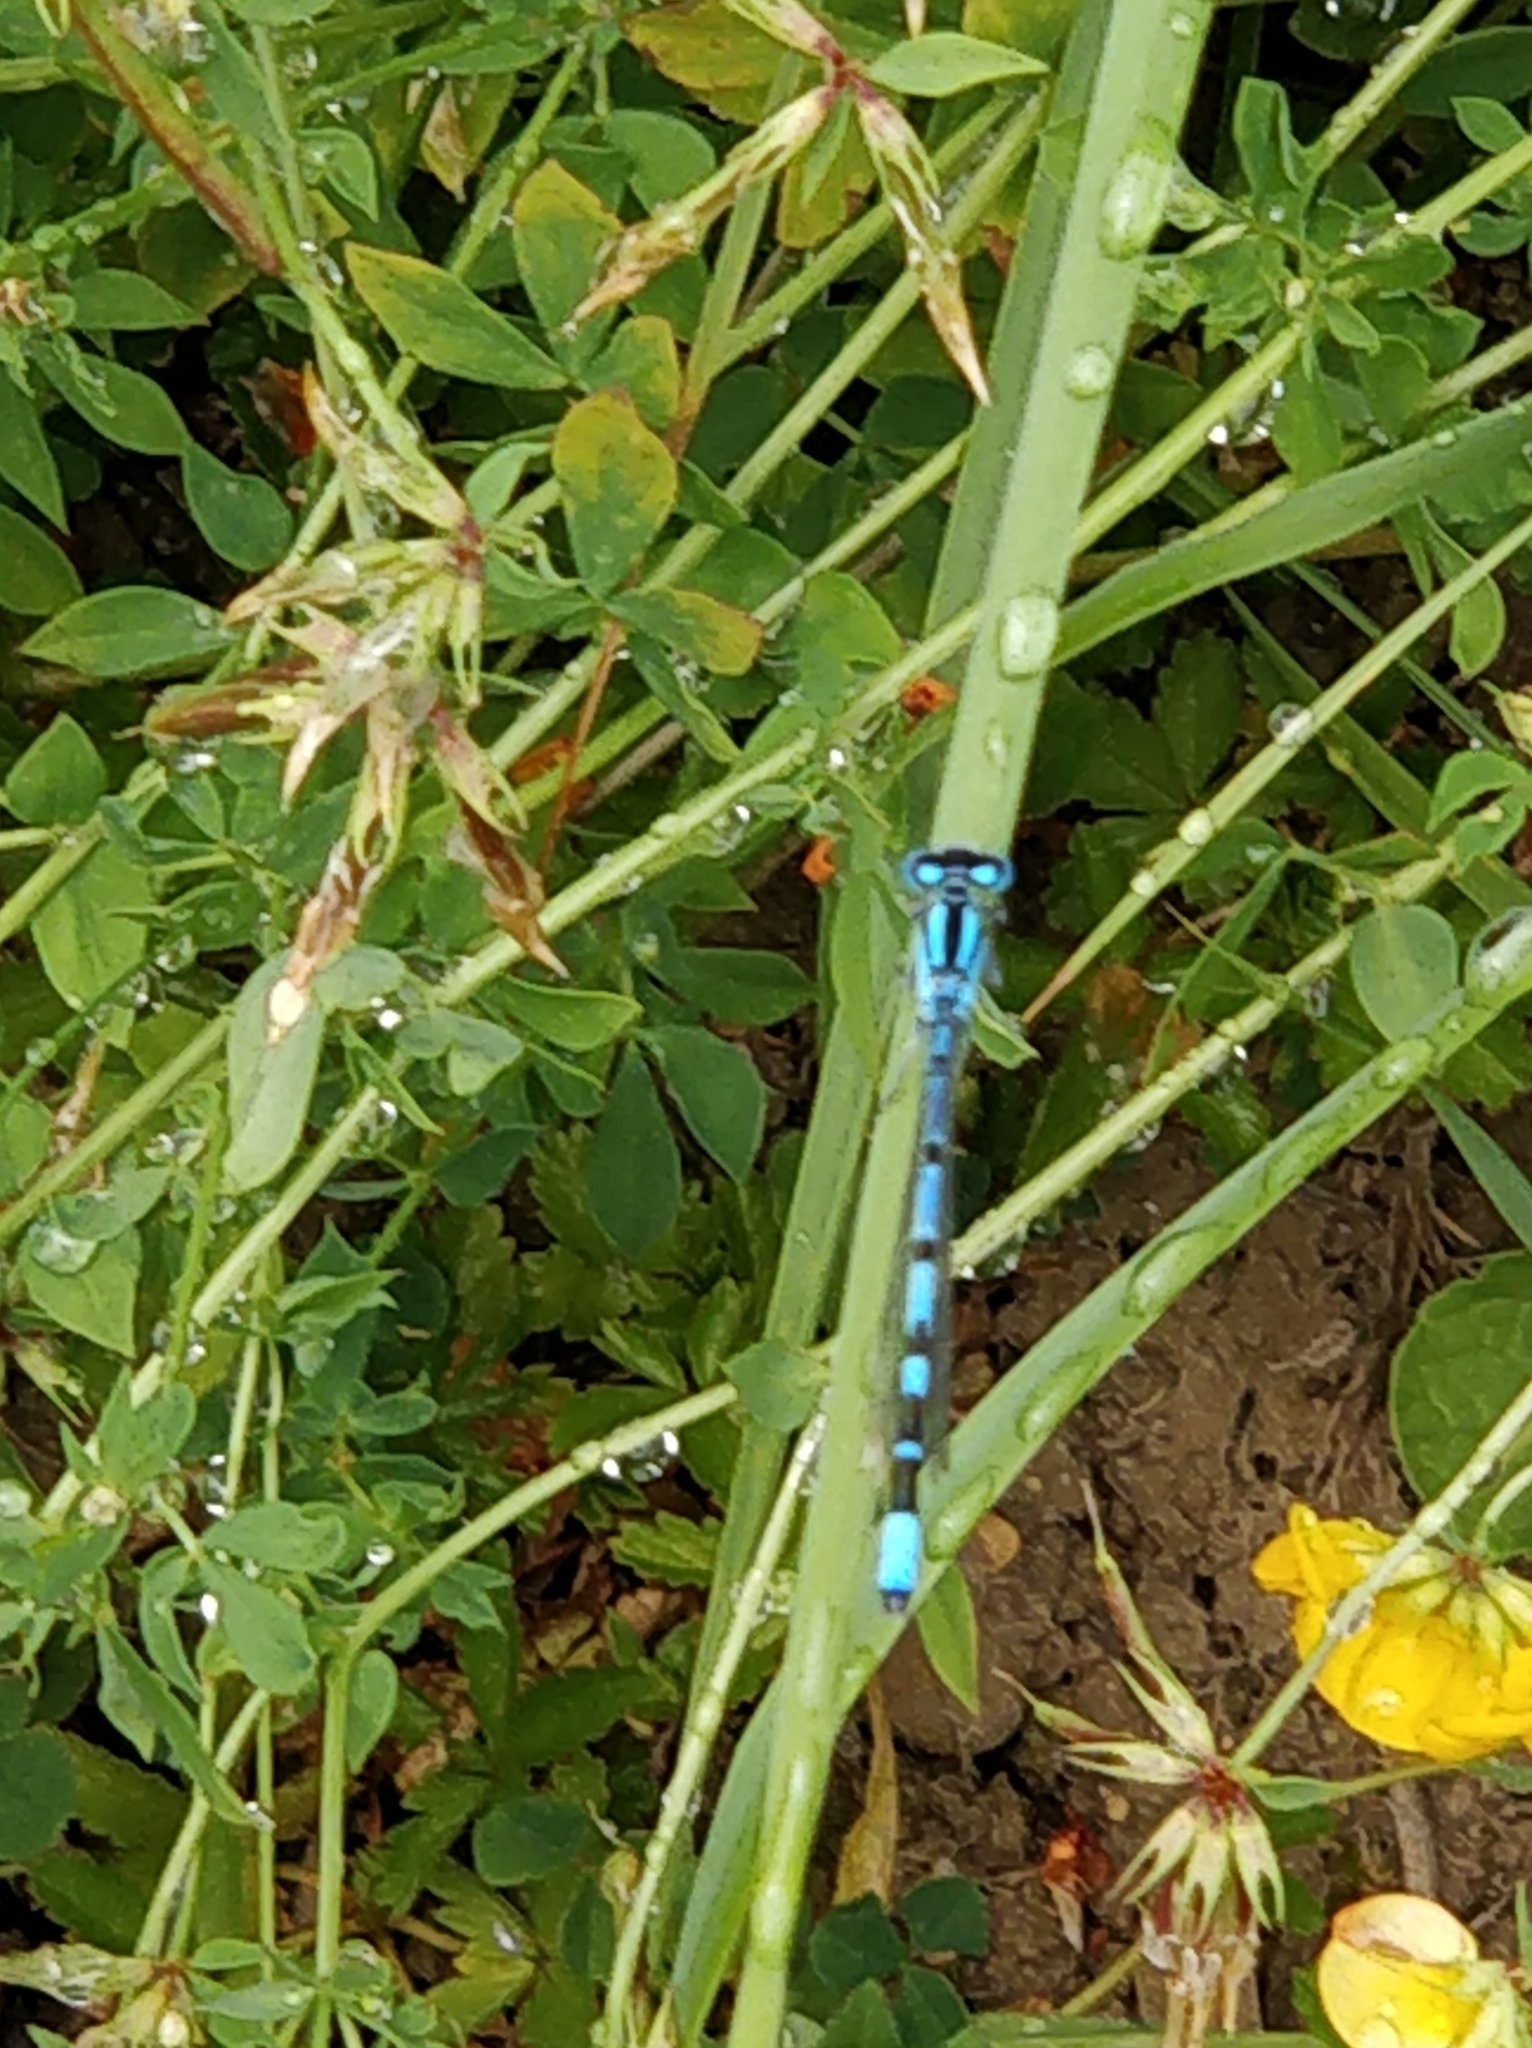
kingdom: Animalia
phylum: Arthropoda
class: Insecta
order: Odonata
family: Coenagrionidae
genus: Enallagma
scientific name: Enallagma cyathigerum
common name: Common blue damselfly
